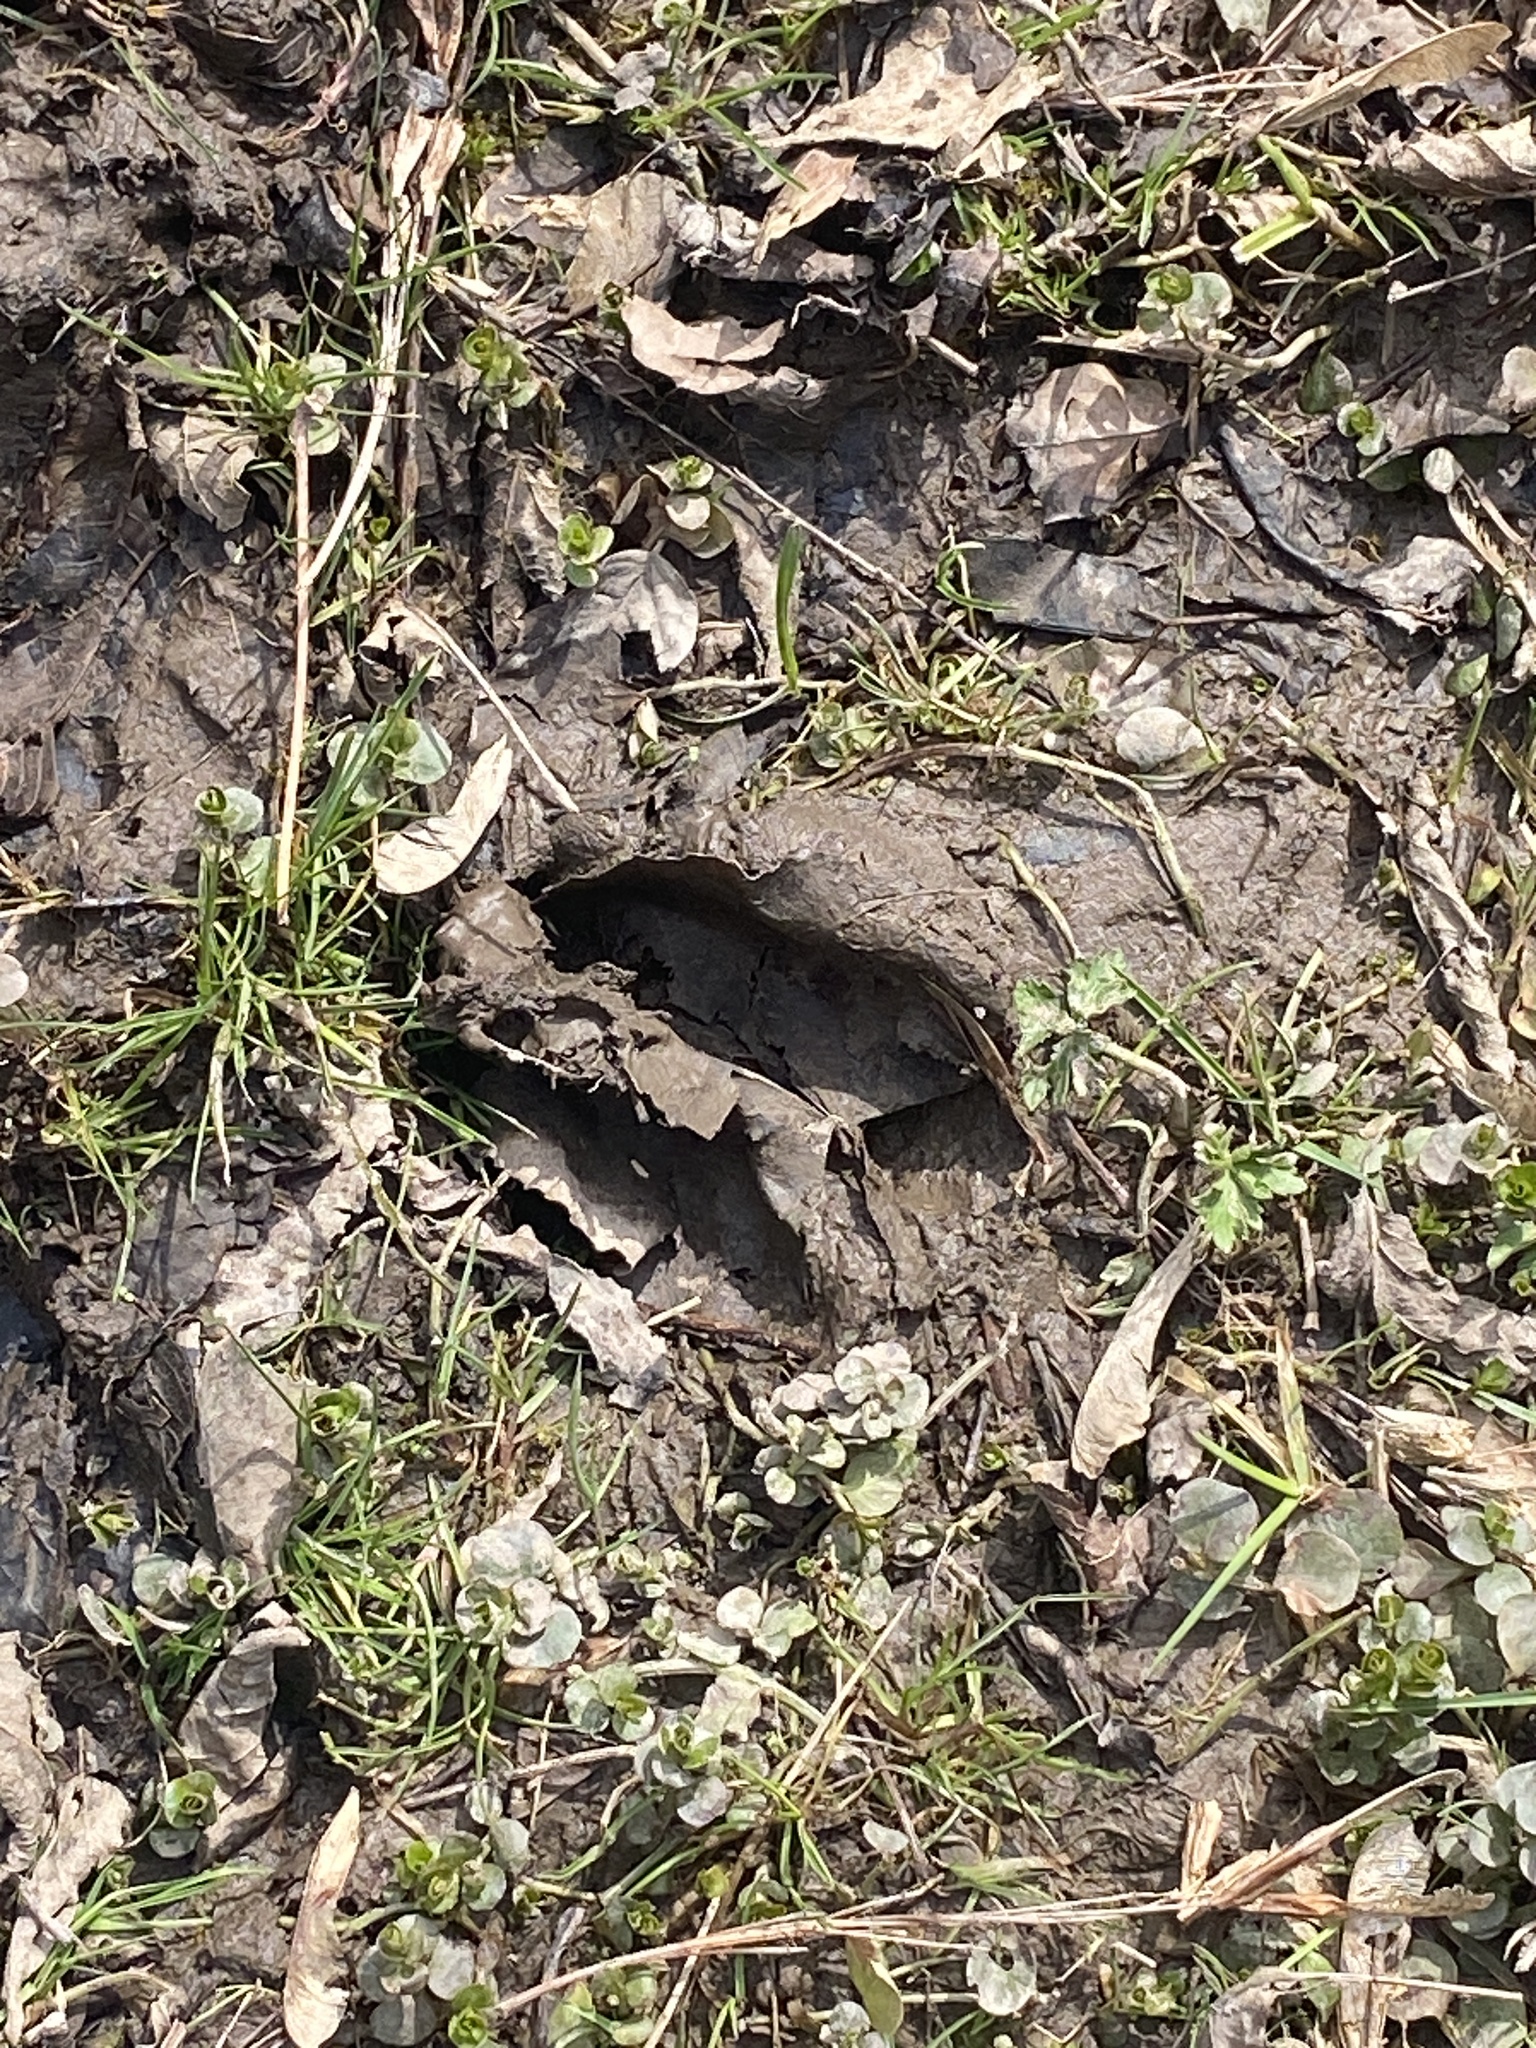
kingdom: Animalia
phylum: Chordata
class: Mammalia
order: Artiodactyla
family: Cervidae
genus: Odocoileus
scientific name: Odocoileus virginianus
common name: White-tailed deer
